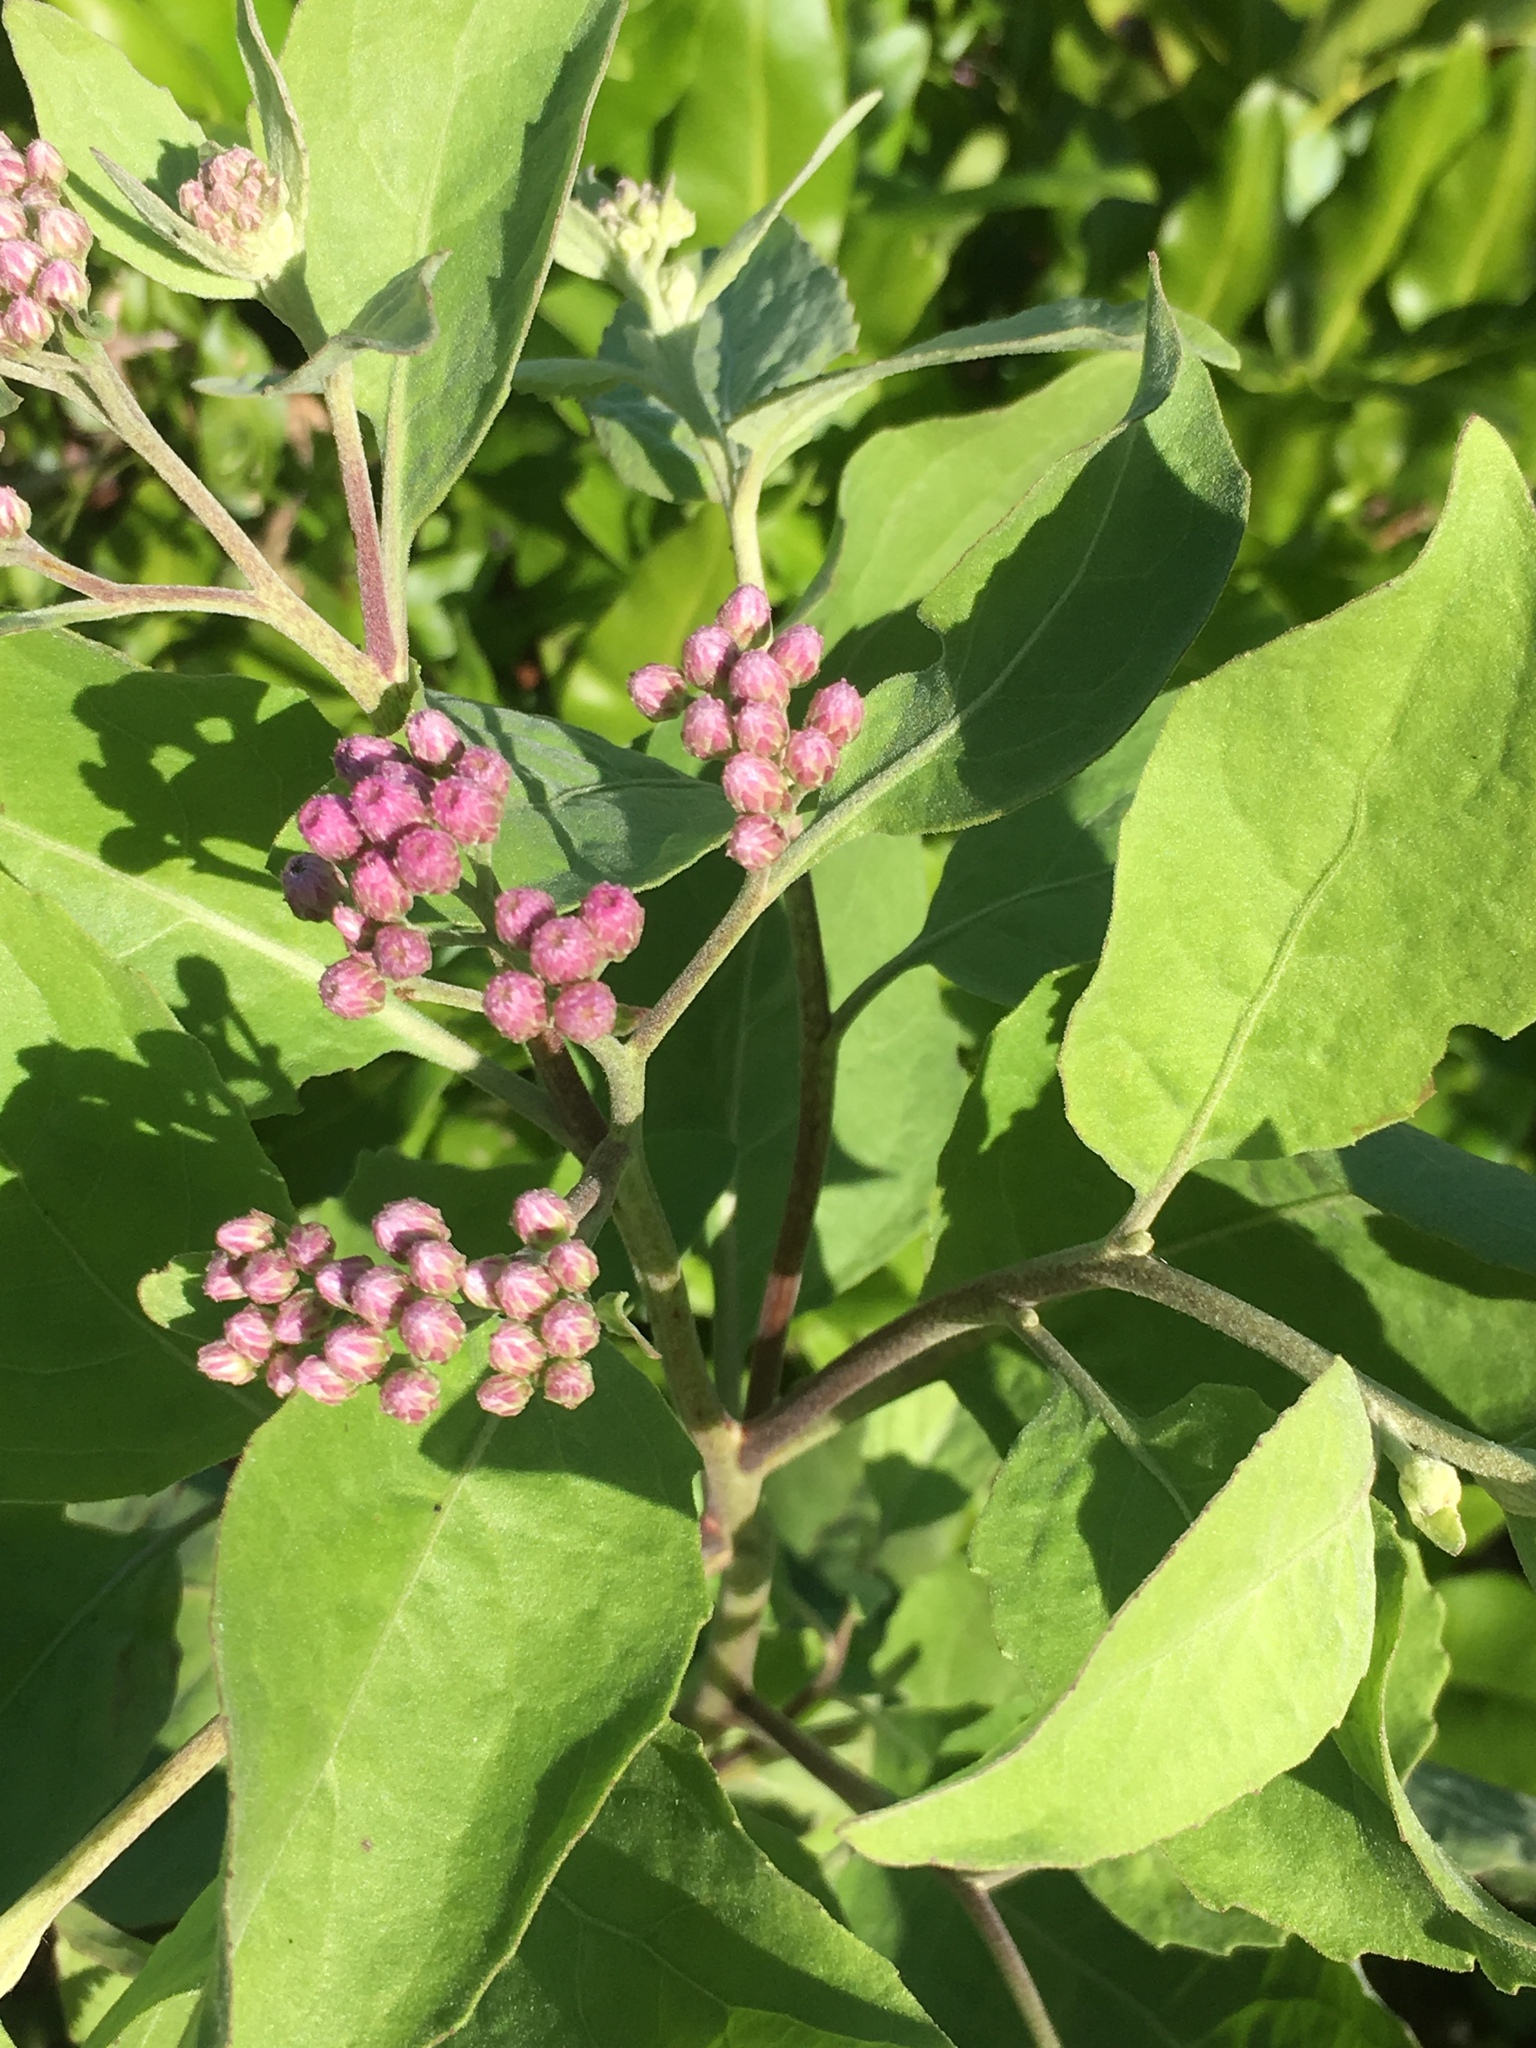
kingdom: Plantae
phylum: Tracheophyta
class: Magnoliopsida
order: Asterales
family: Asteraceae
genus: Pluchea
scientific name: Pluchea odorata
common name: Saltmarsh fleabane
